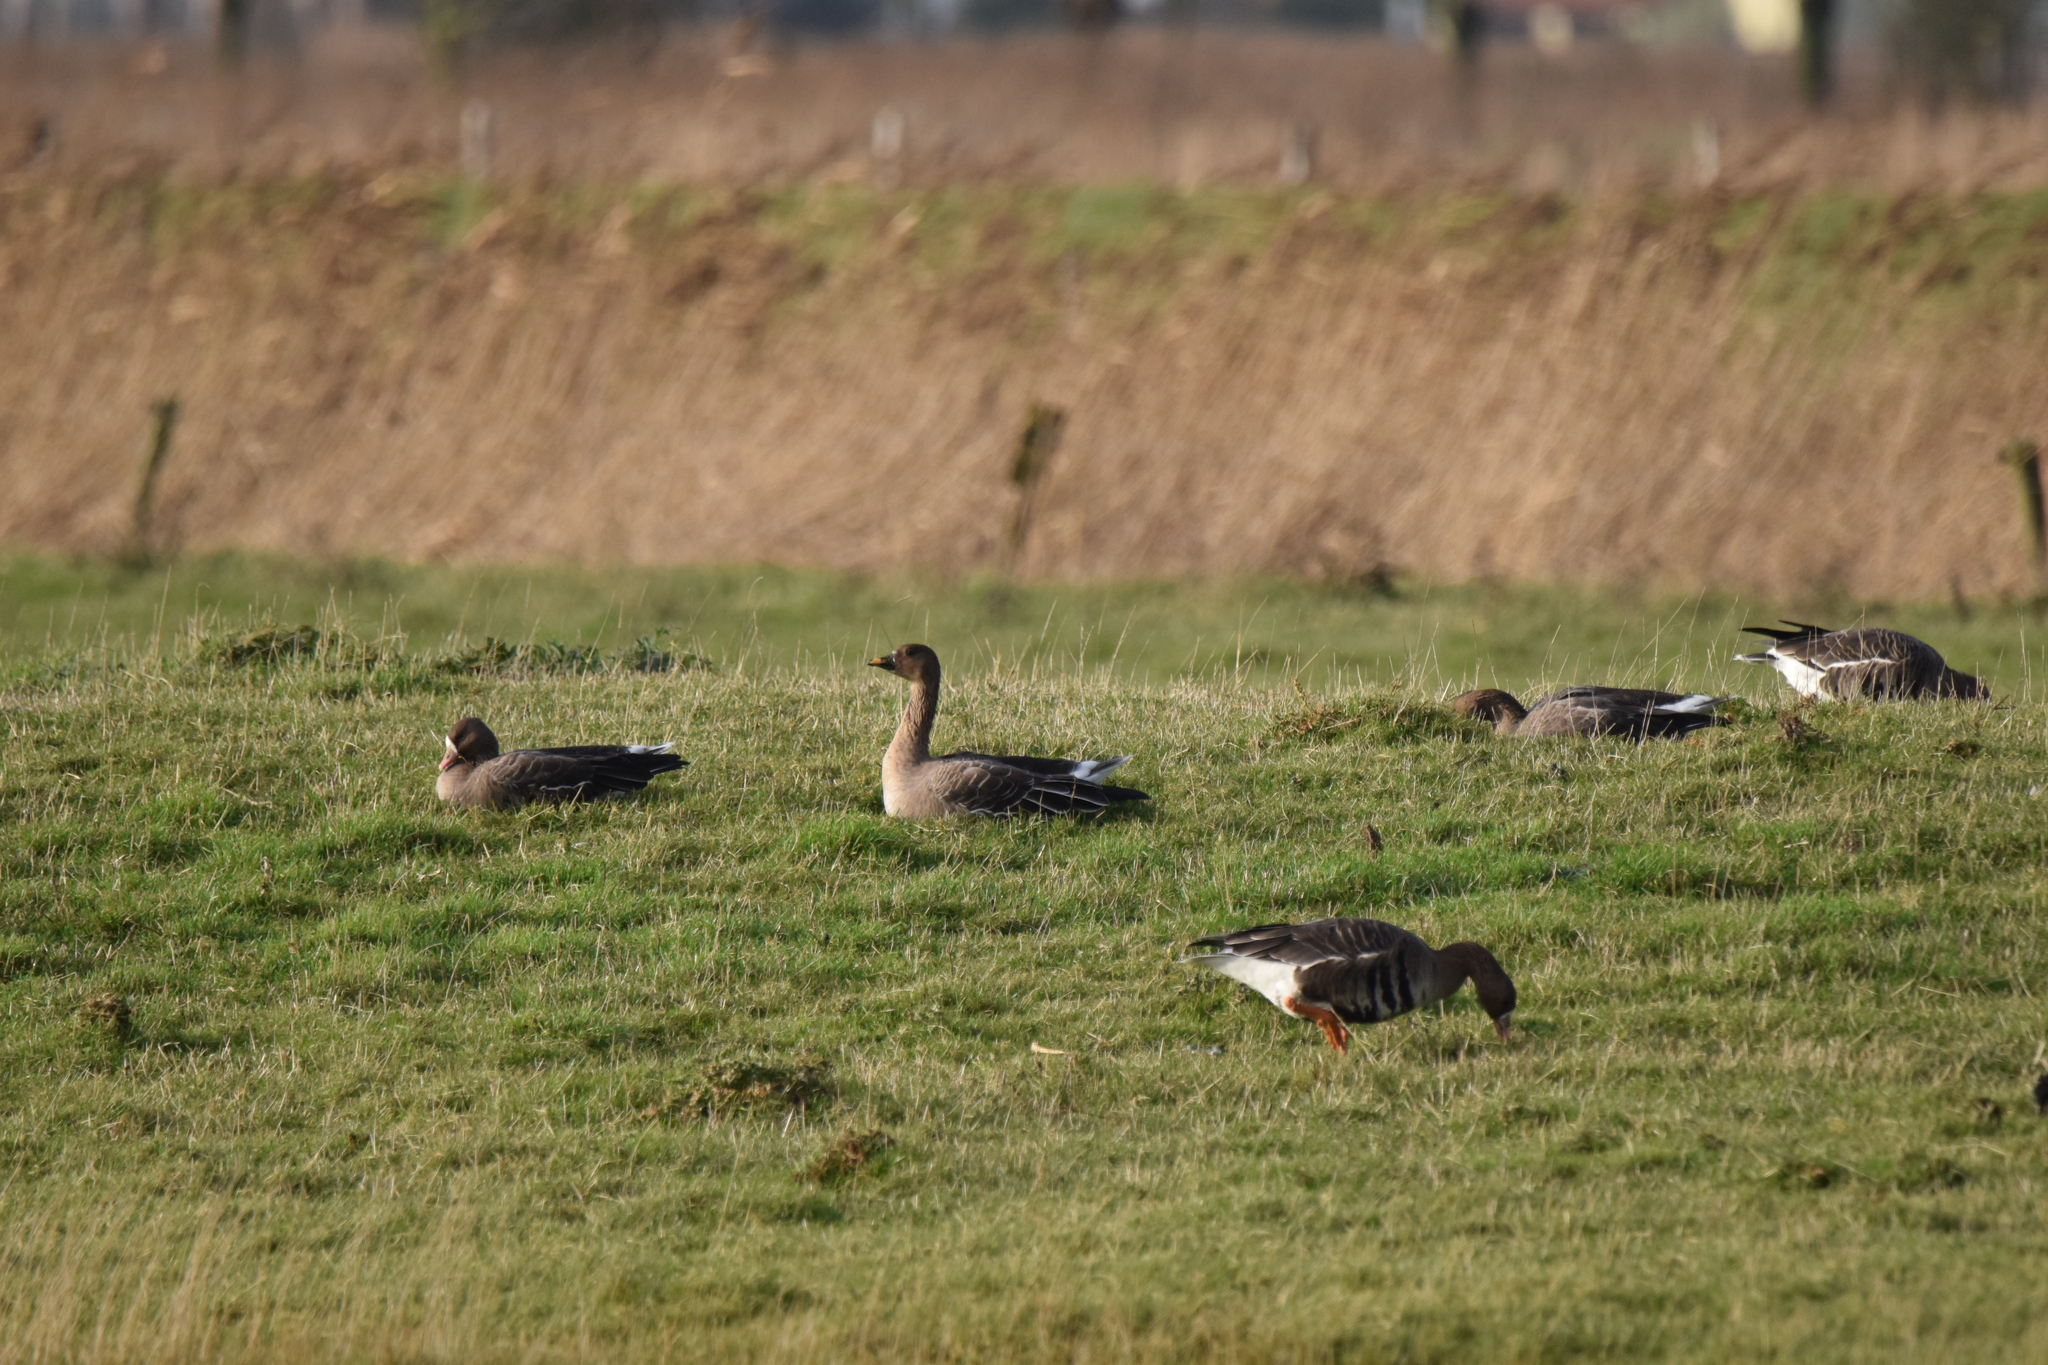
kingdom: Animalia
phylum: Chordata
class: Aves
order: Anseriformes
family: Anatidae
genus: Anser
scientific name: Anser serrirostris
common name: Tundra bean goose
